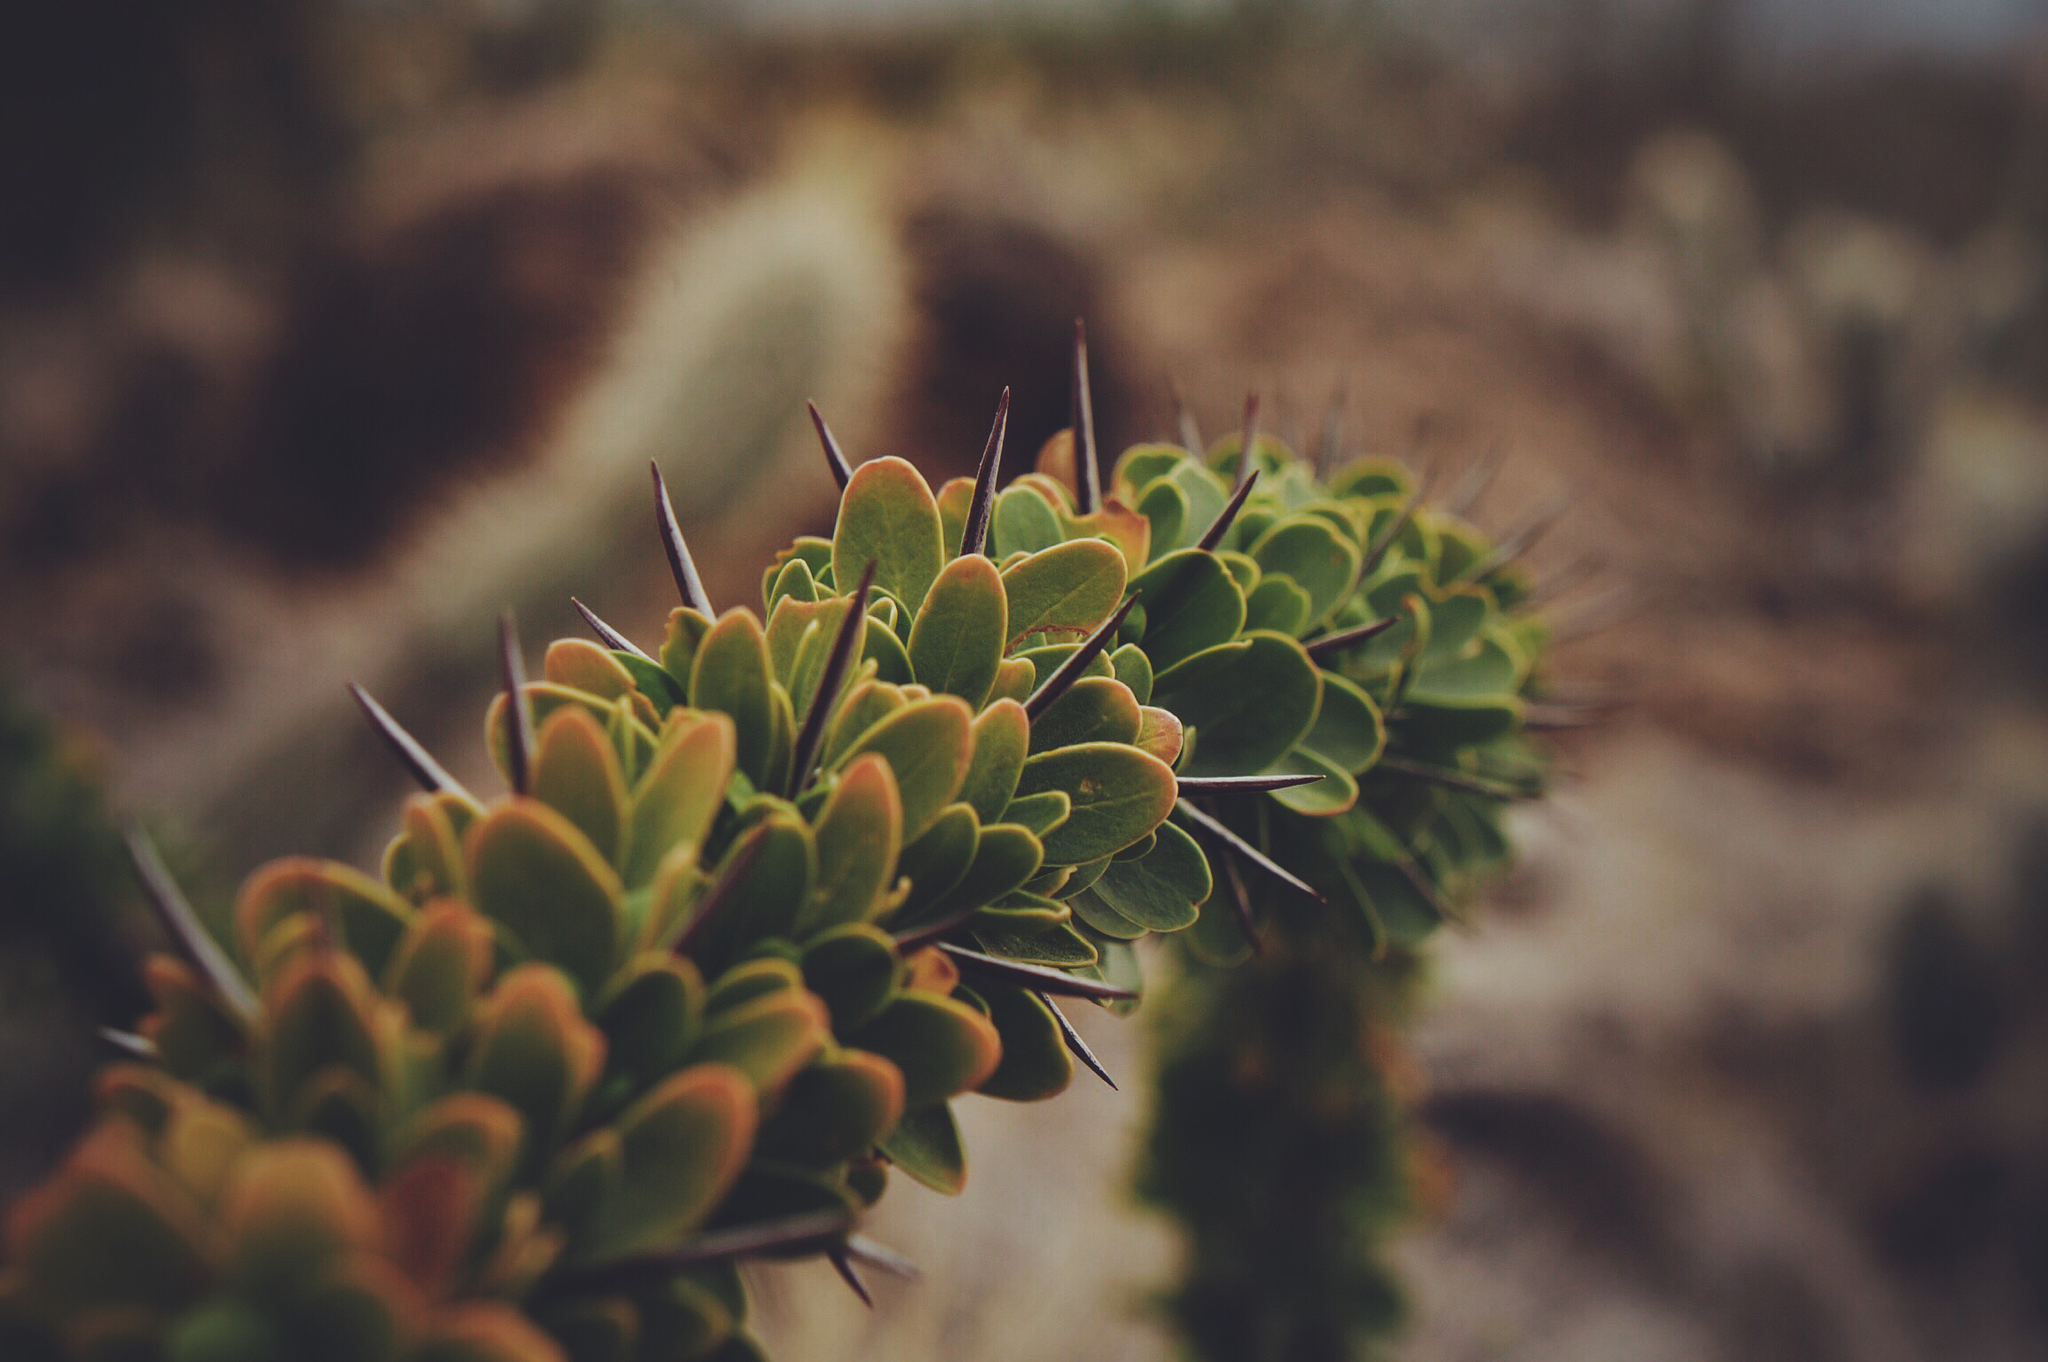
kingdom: Plantae
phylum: Tracheophyta
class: Magnoliopsida
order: Ericales
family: Fouquieriaceae
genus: Fouquieria
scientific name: Fouquieria splendens
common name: Vine-cactus
